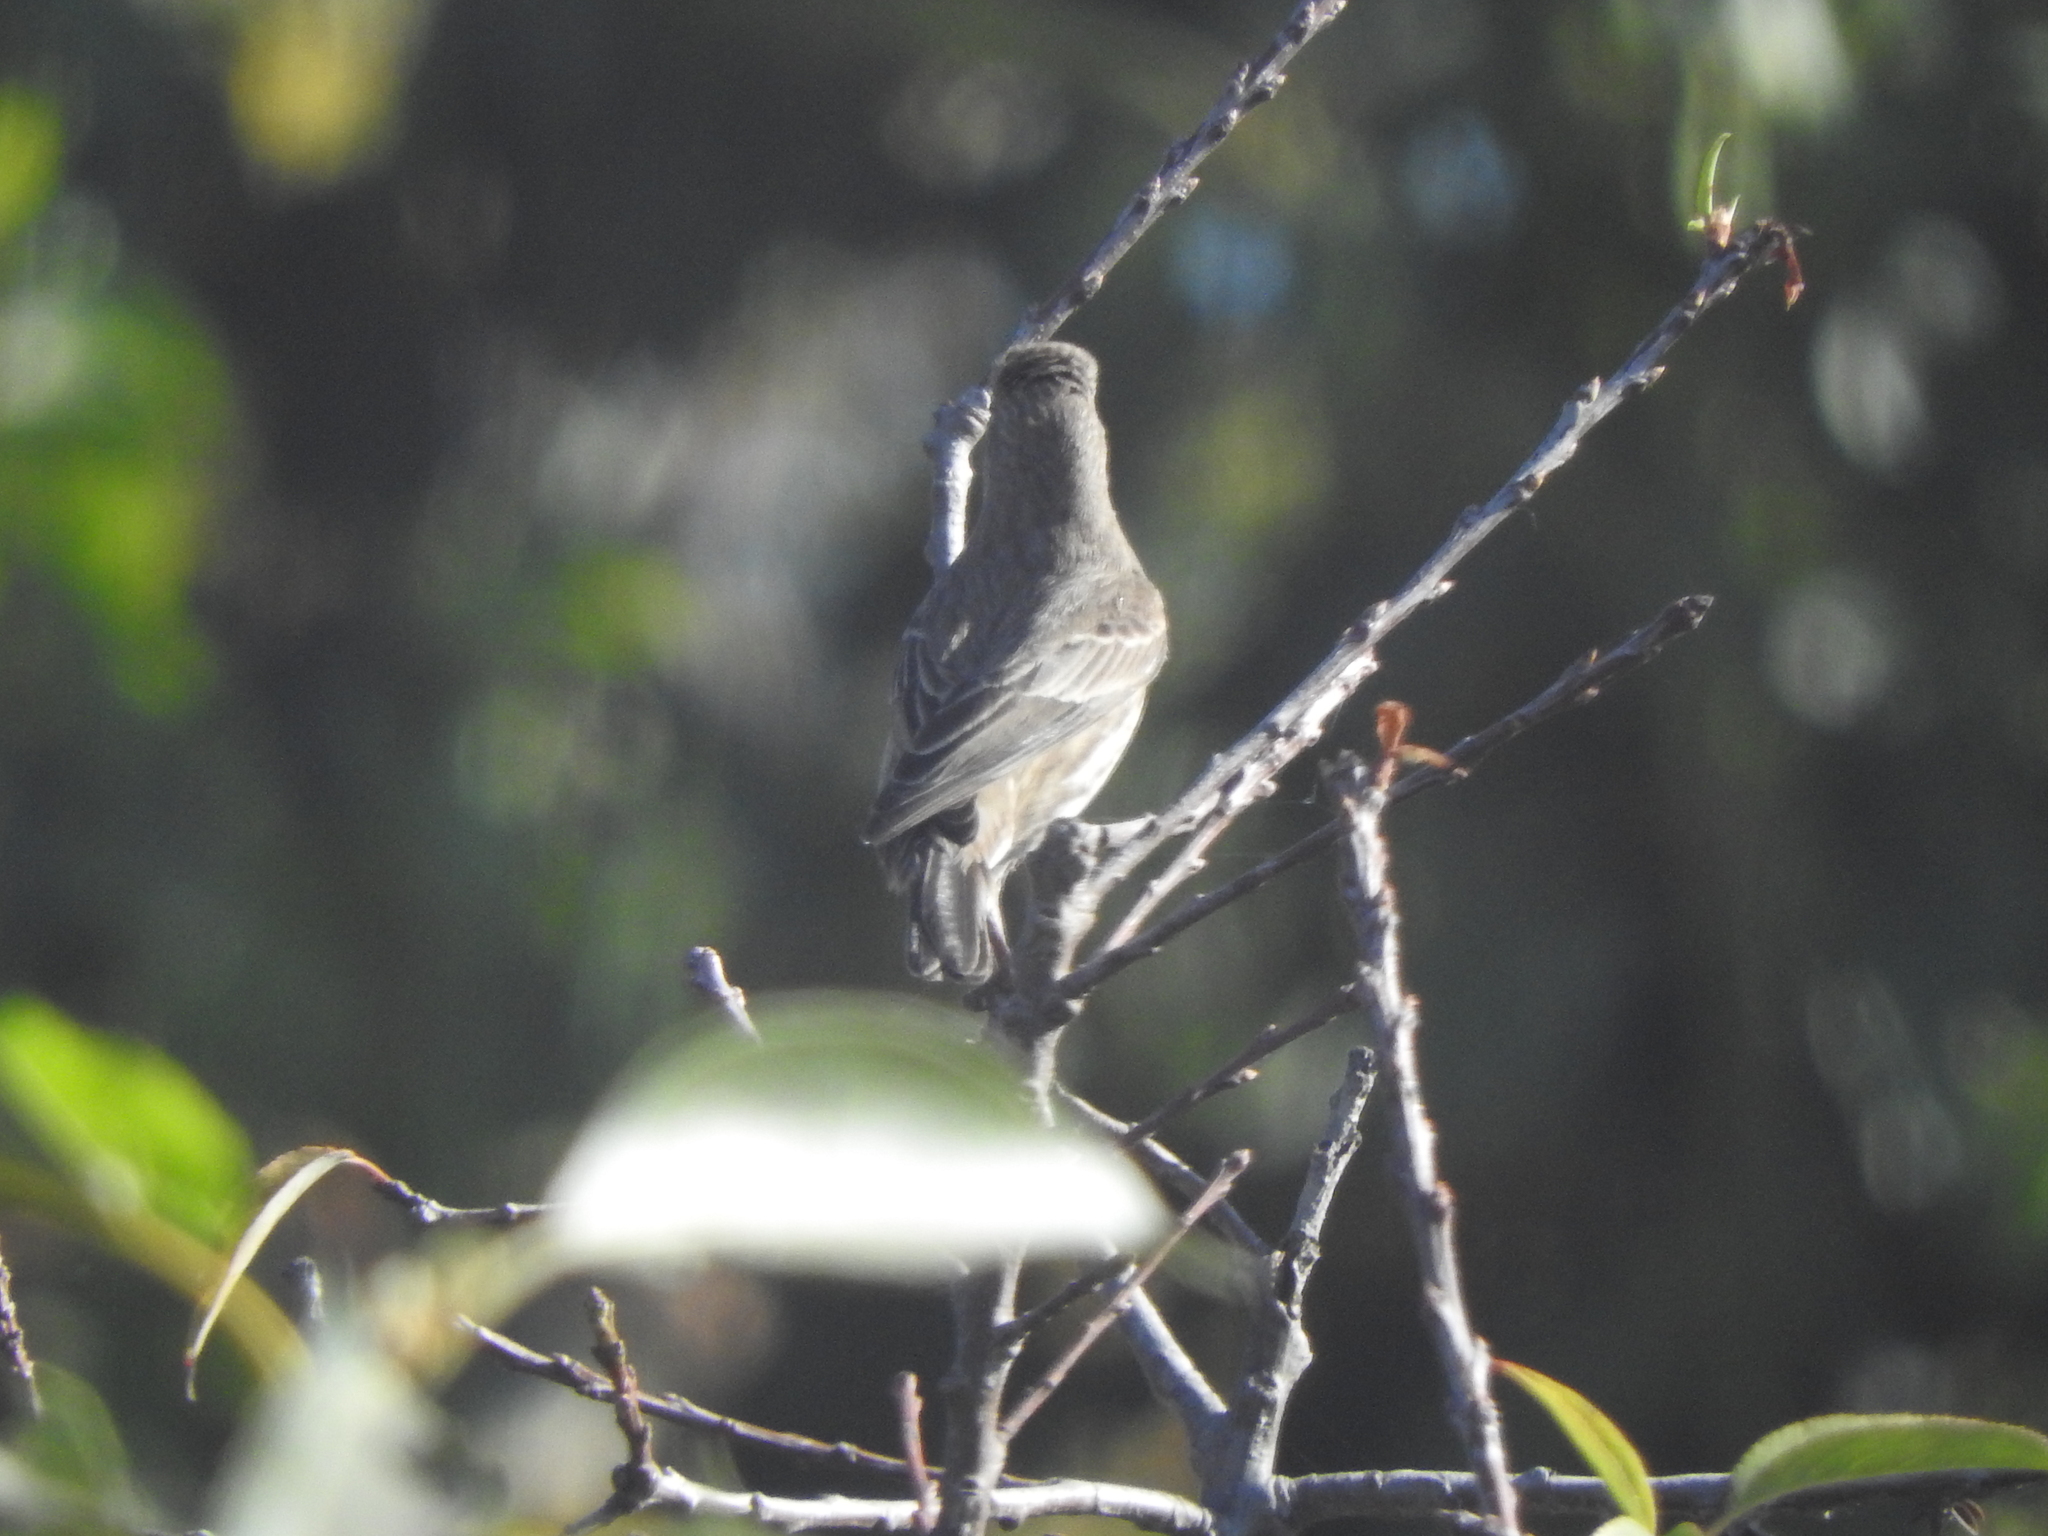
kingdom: Animalia
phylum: Chordata
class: Aves
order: Passeriformes
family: Fringillidae
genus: Haemorhous
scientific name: Haemorhous mexicanus
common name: House finch
